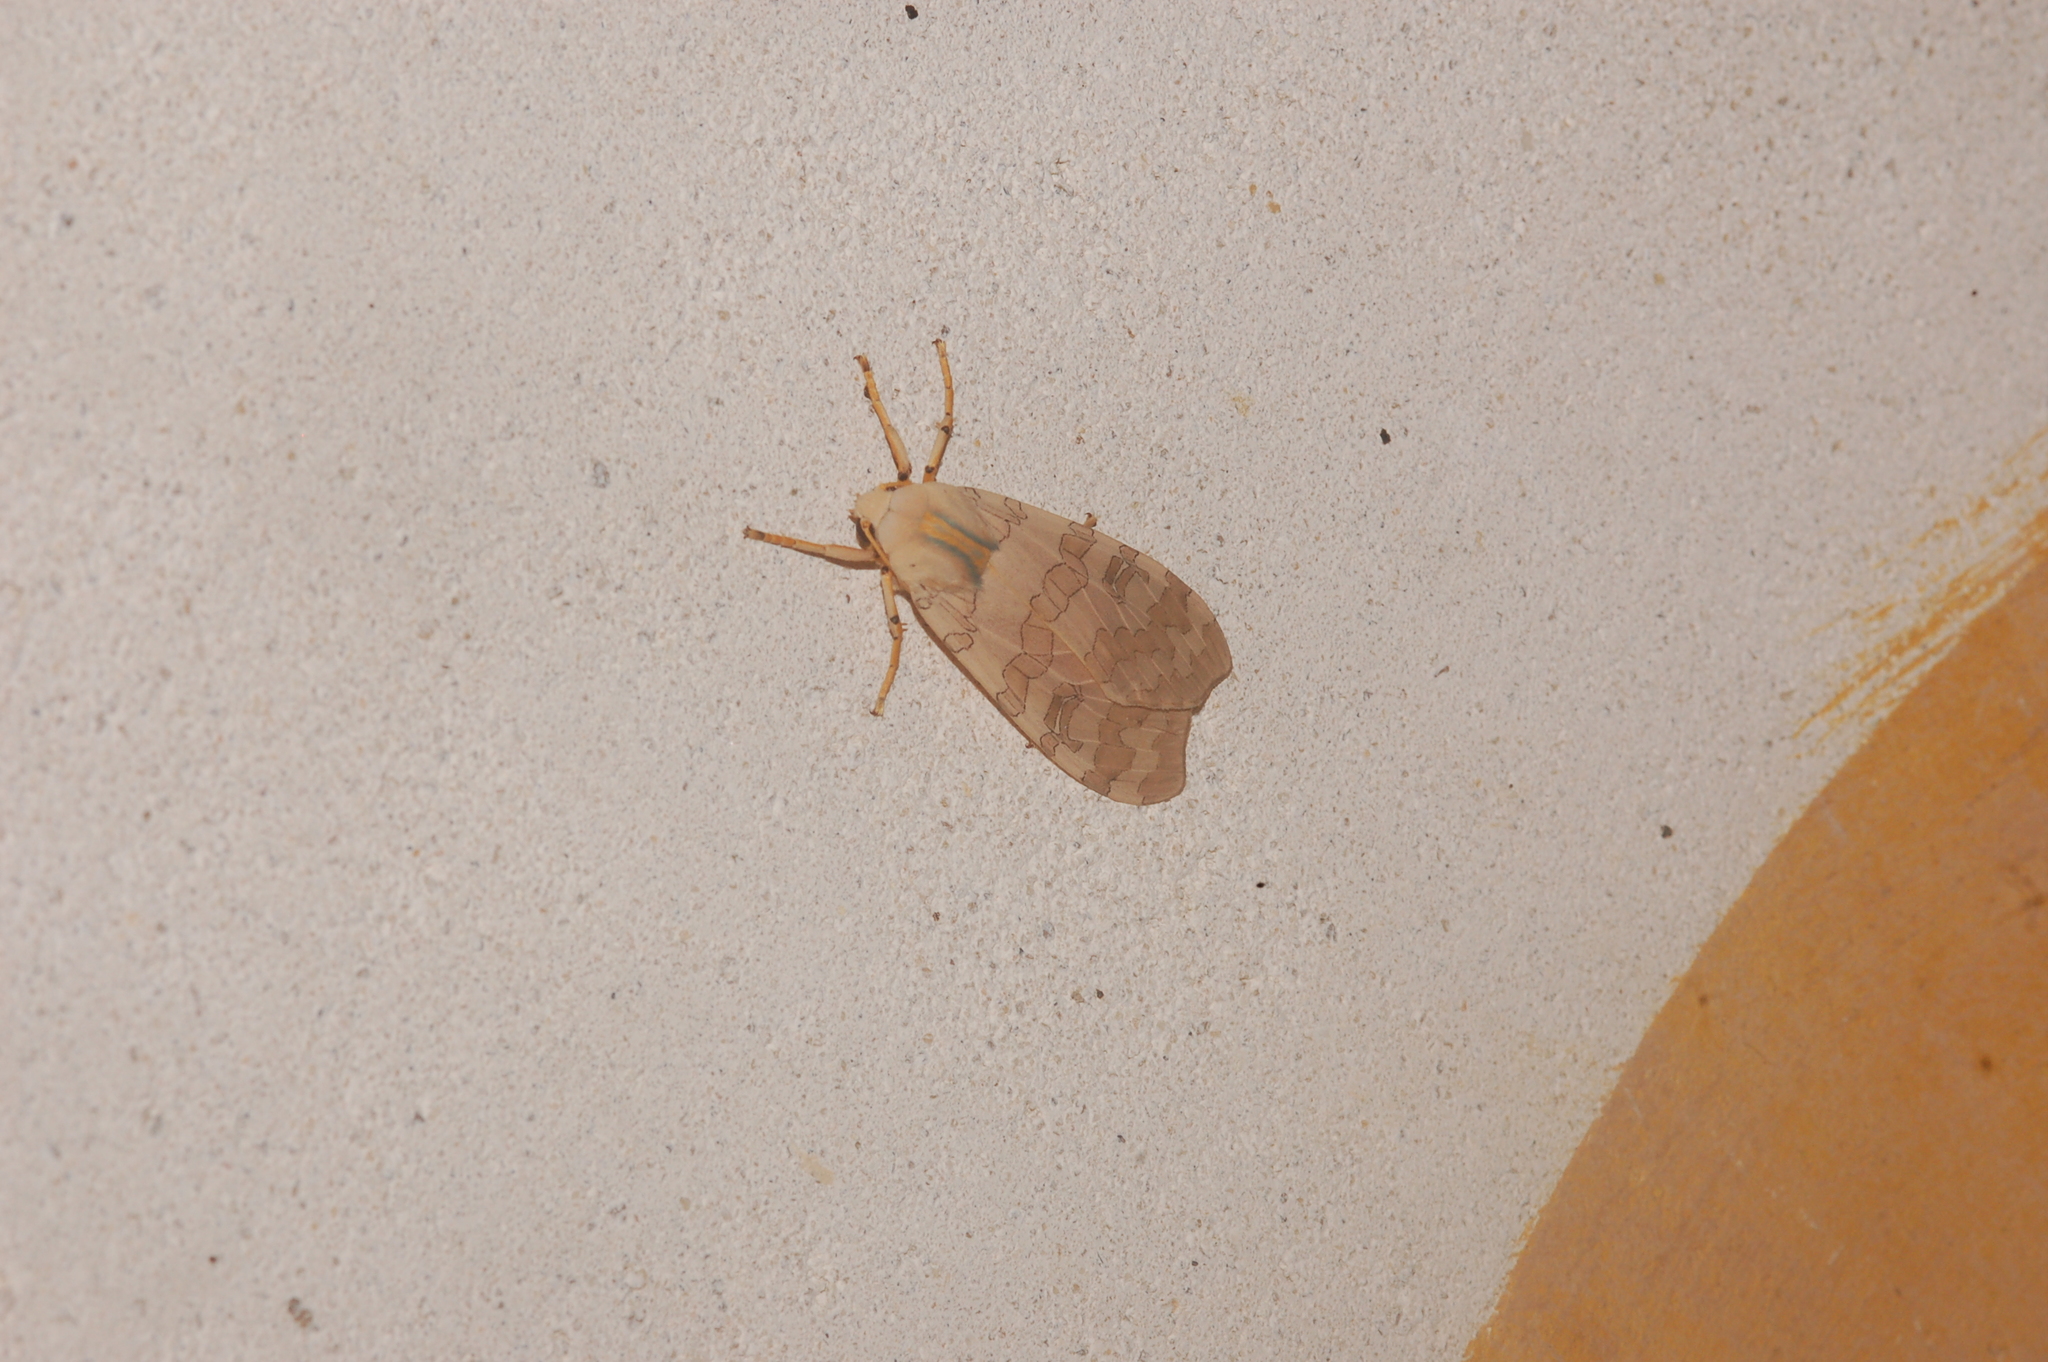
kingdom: Animalia
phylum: Arthropoda
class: Insecta
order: Lepidoptera
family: Erebidae
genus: Halysidota
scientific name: Halysidota
